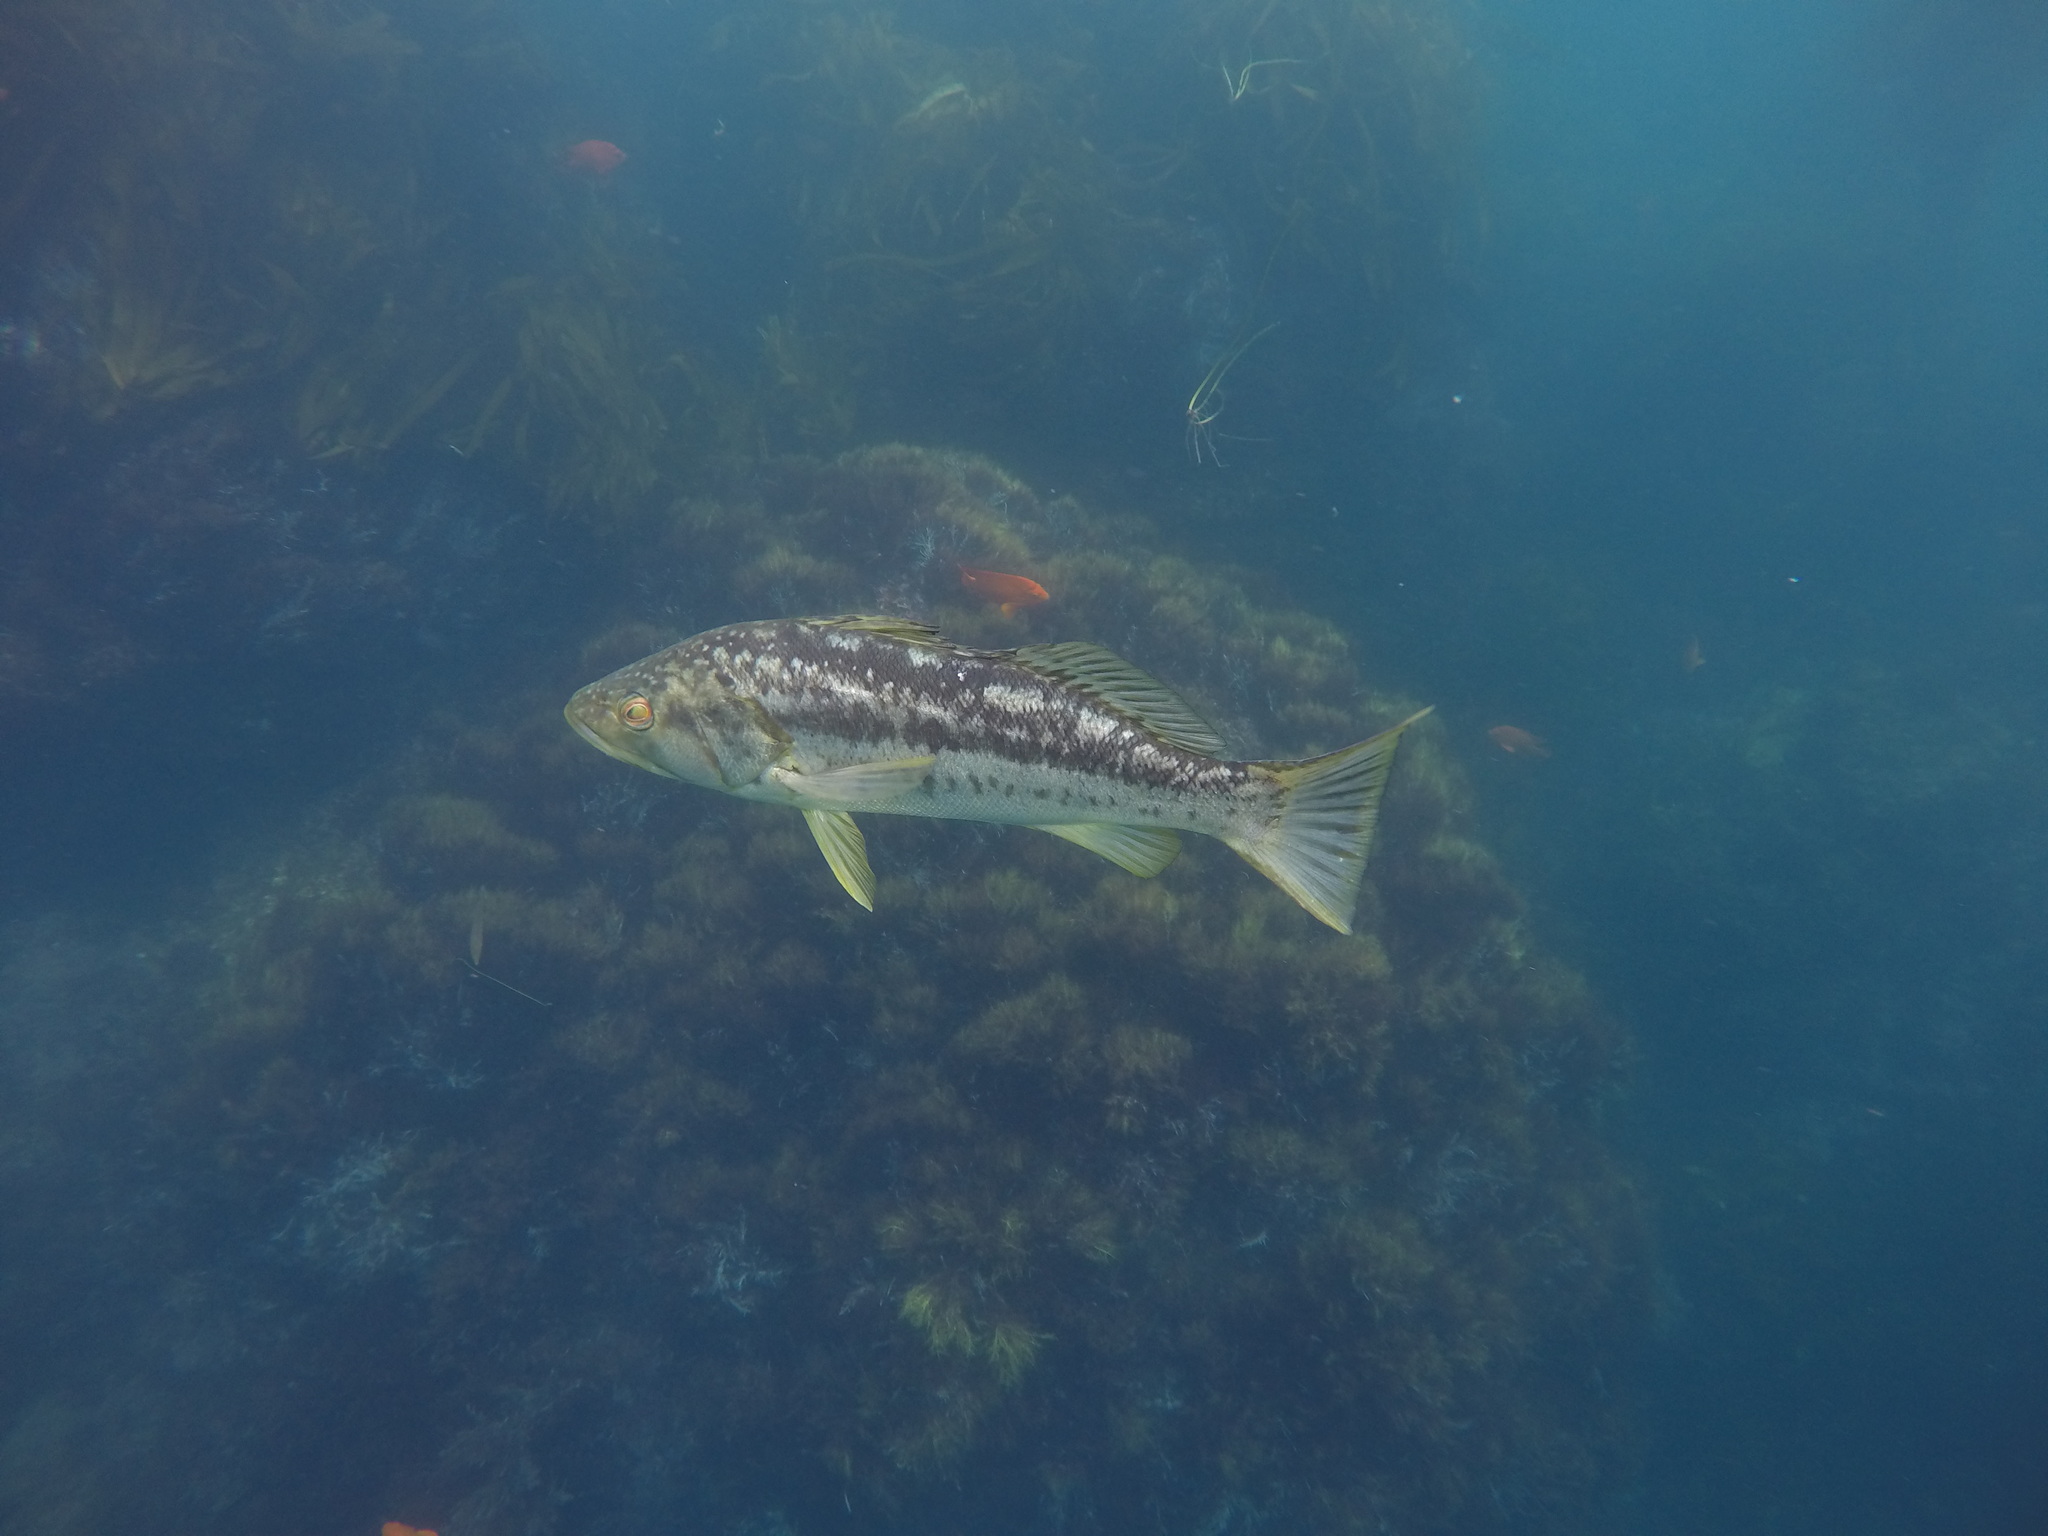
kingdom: Animalia
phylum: Chordata
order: Perciformes
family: Serranidae
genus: Paralabrax
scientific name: Paralabrax clathratus
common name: Kelp bass
